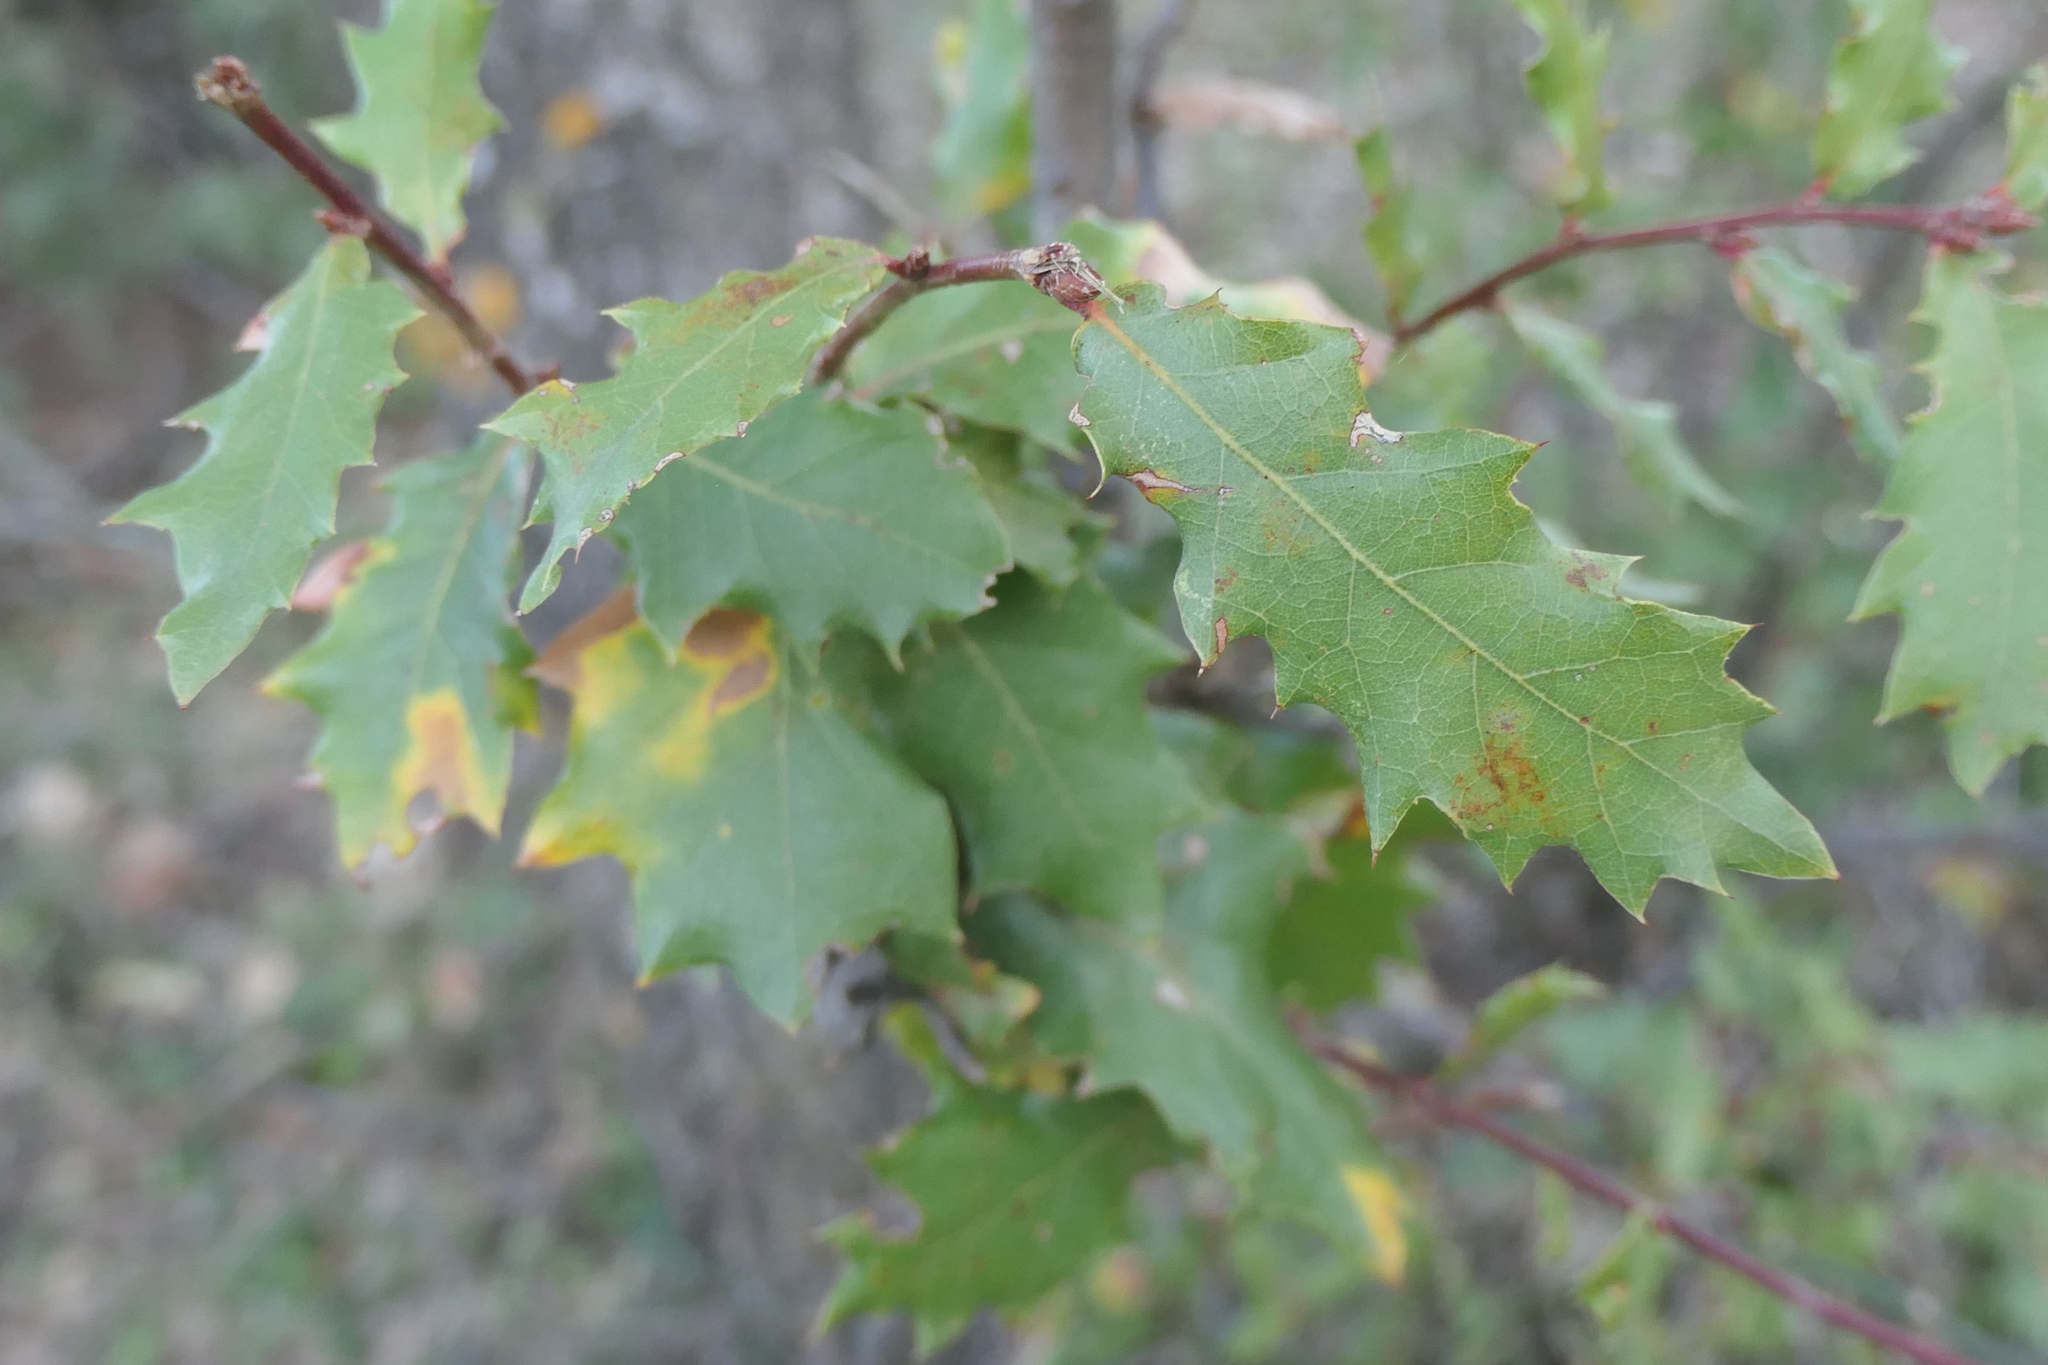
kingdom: Plantae
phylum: Tracheophyta
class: Magnoliopsida
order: Fagales
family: Fagaceae
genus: Quercus
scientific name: Quercus faginea
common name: Gall oak tree
